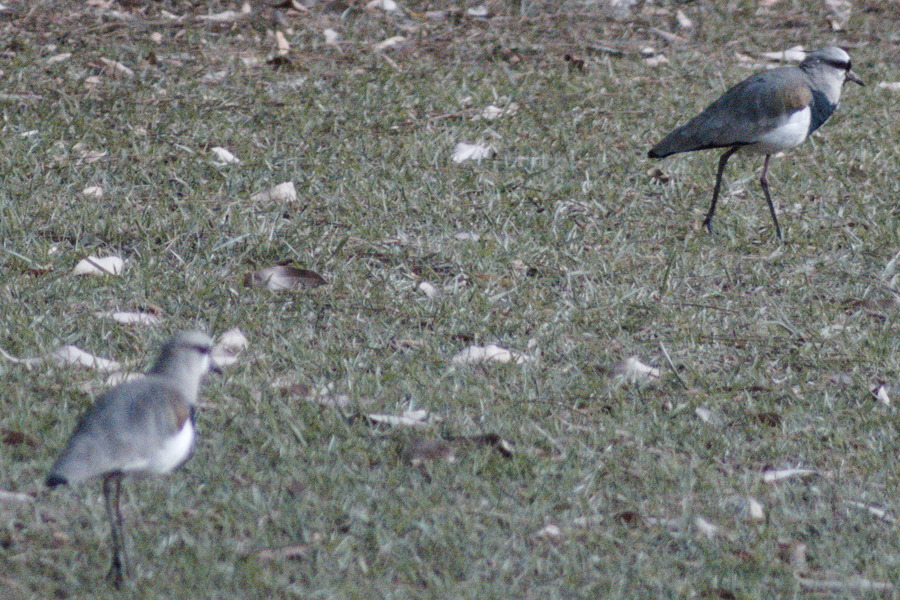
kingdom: Animalia
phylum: Chordata
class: Aves
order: Charadriiformes
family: Charadriidae
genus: Vanellus
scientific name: Vanellus chilensis
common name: Southern lapwing
